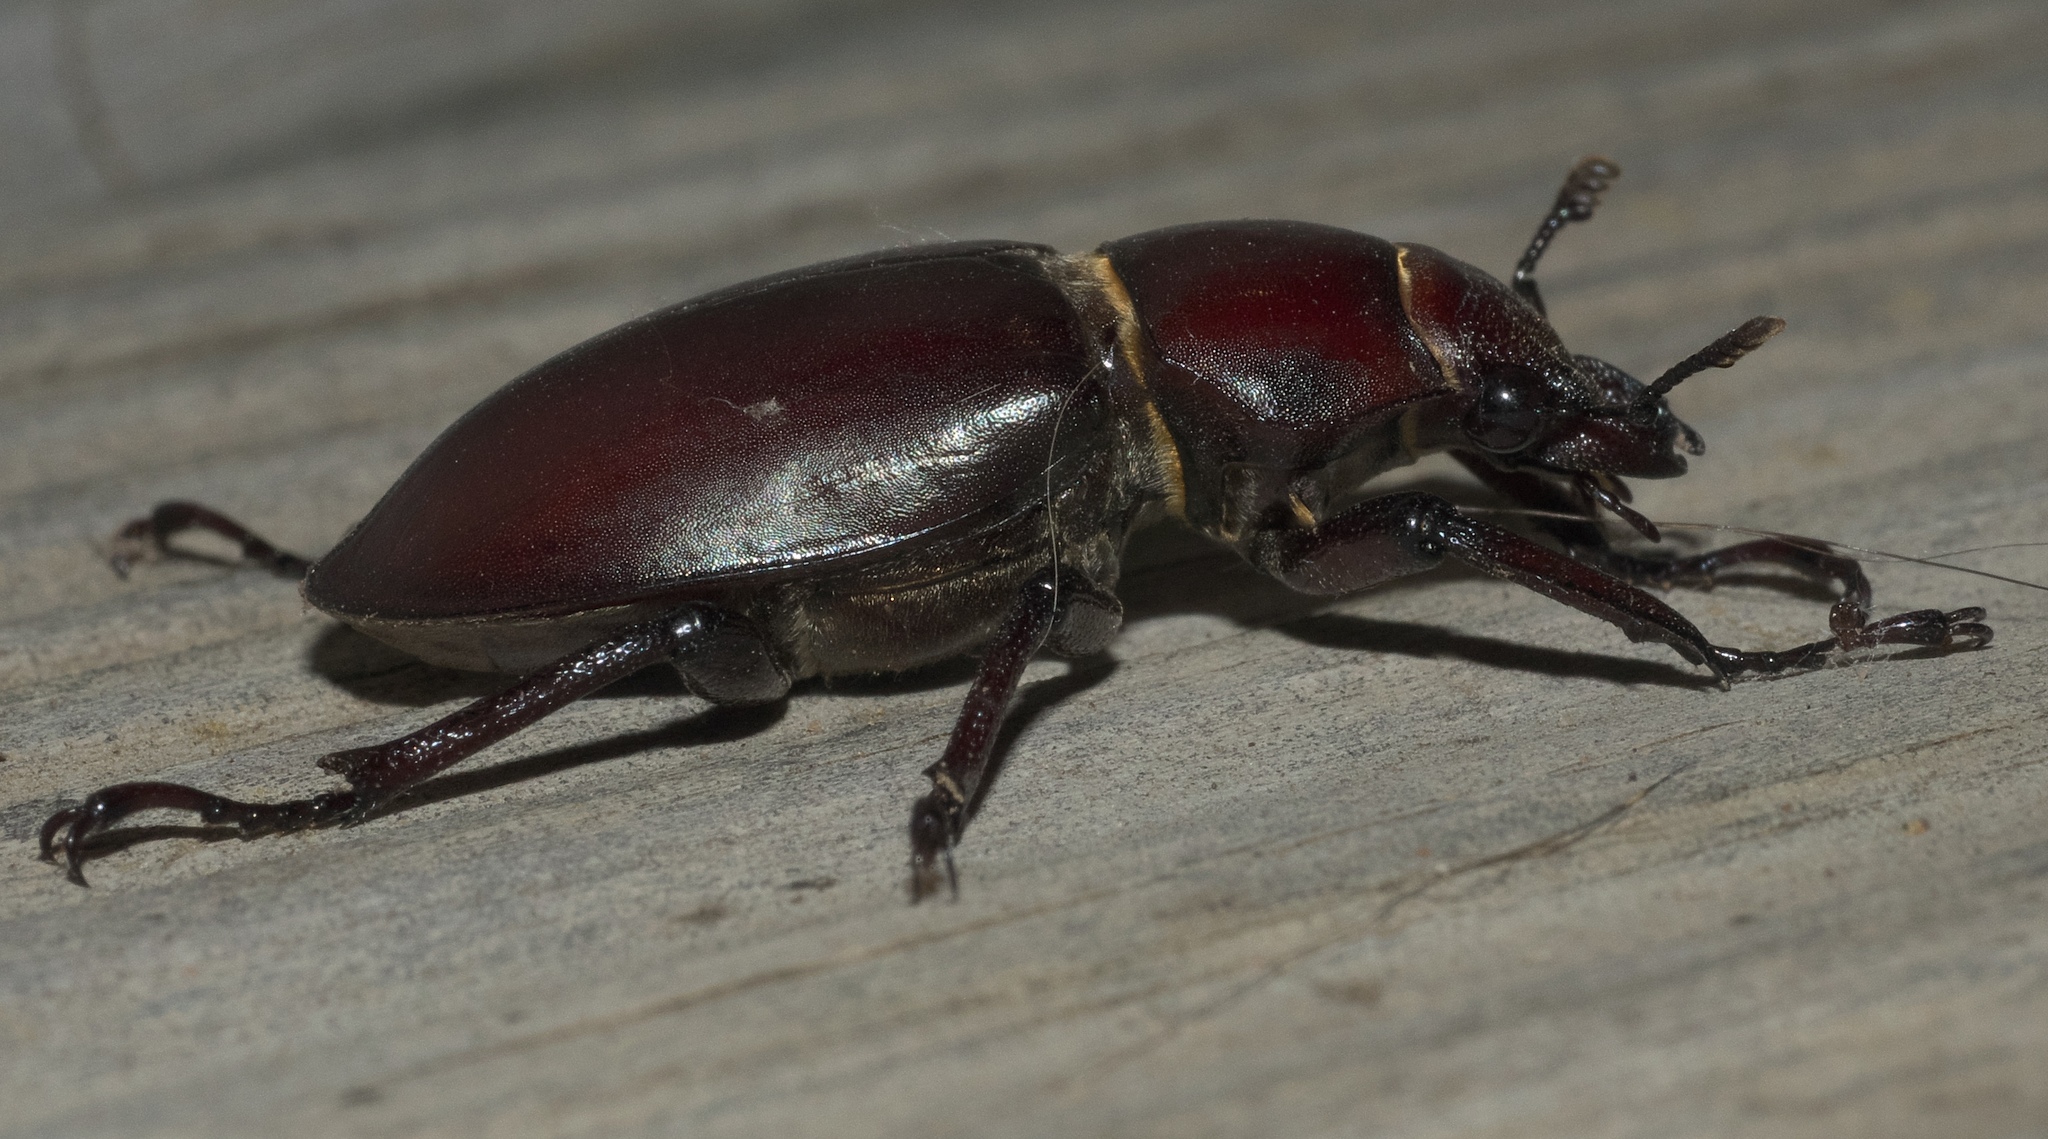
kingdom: Animalia
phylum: Arthropoda
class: Insecta
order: Coleoptera
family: Lucanidae
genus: Lucanus
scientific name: Lucanus elaphus
